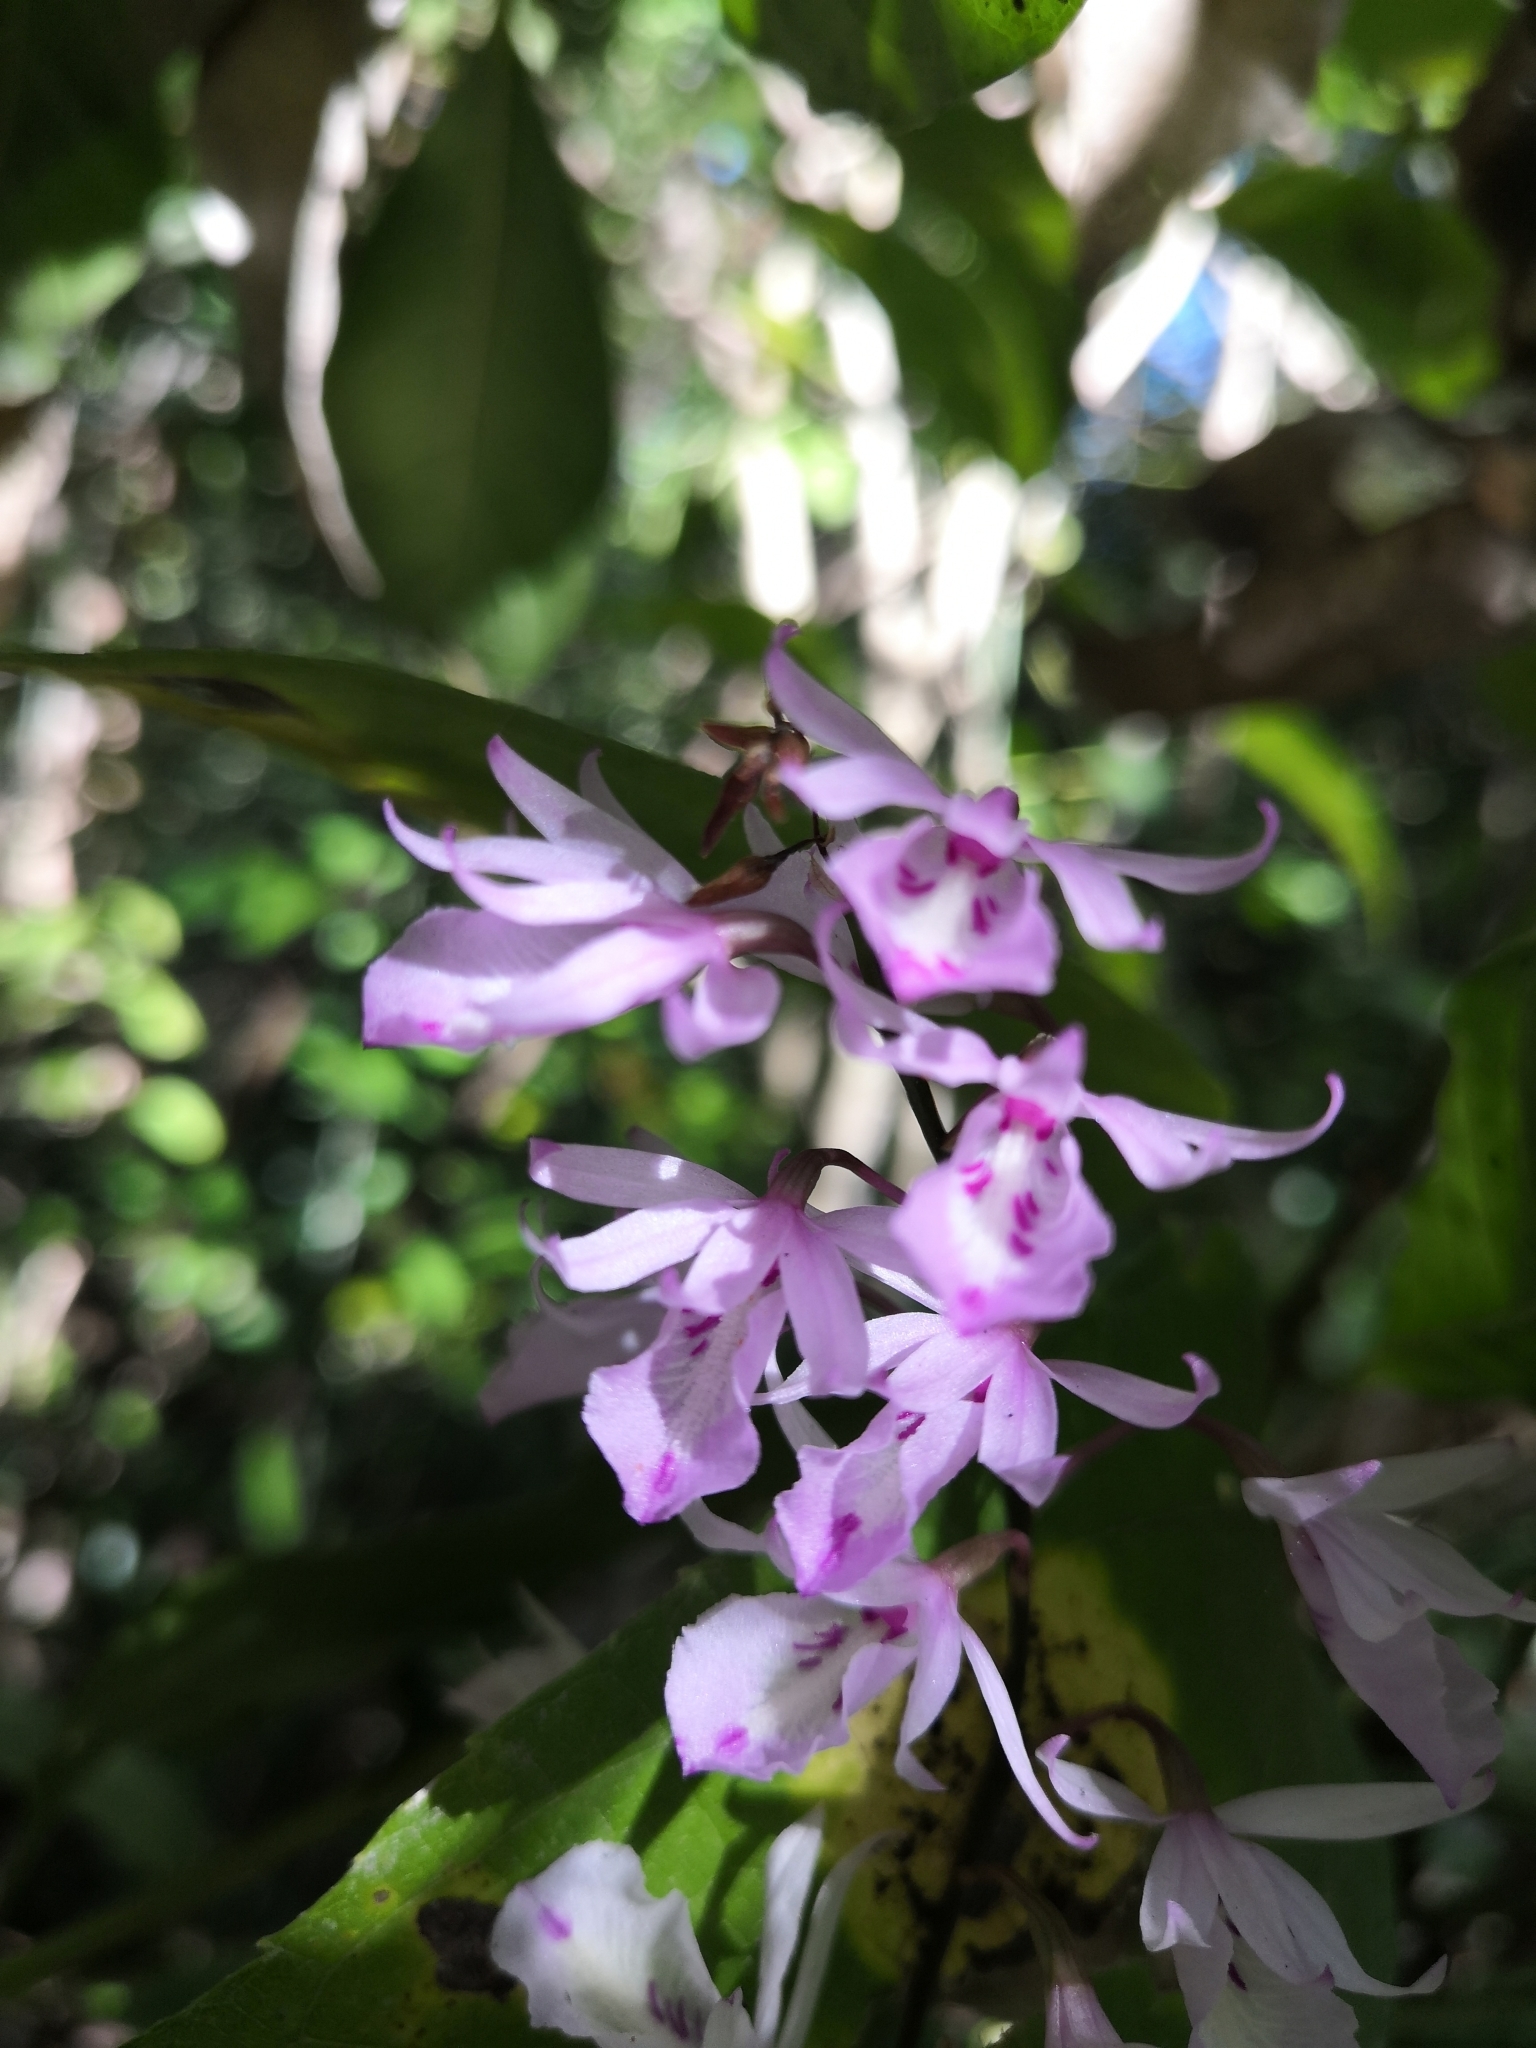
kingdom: Plantae
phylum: Tracheophyta
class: Liliopsida
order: Asparagales
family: Orchidaceae
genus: Barkeria
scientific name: Barkeria palmeri
